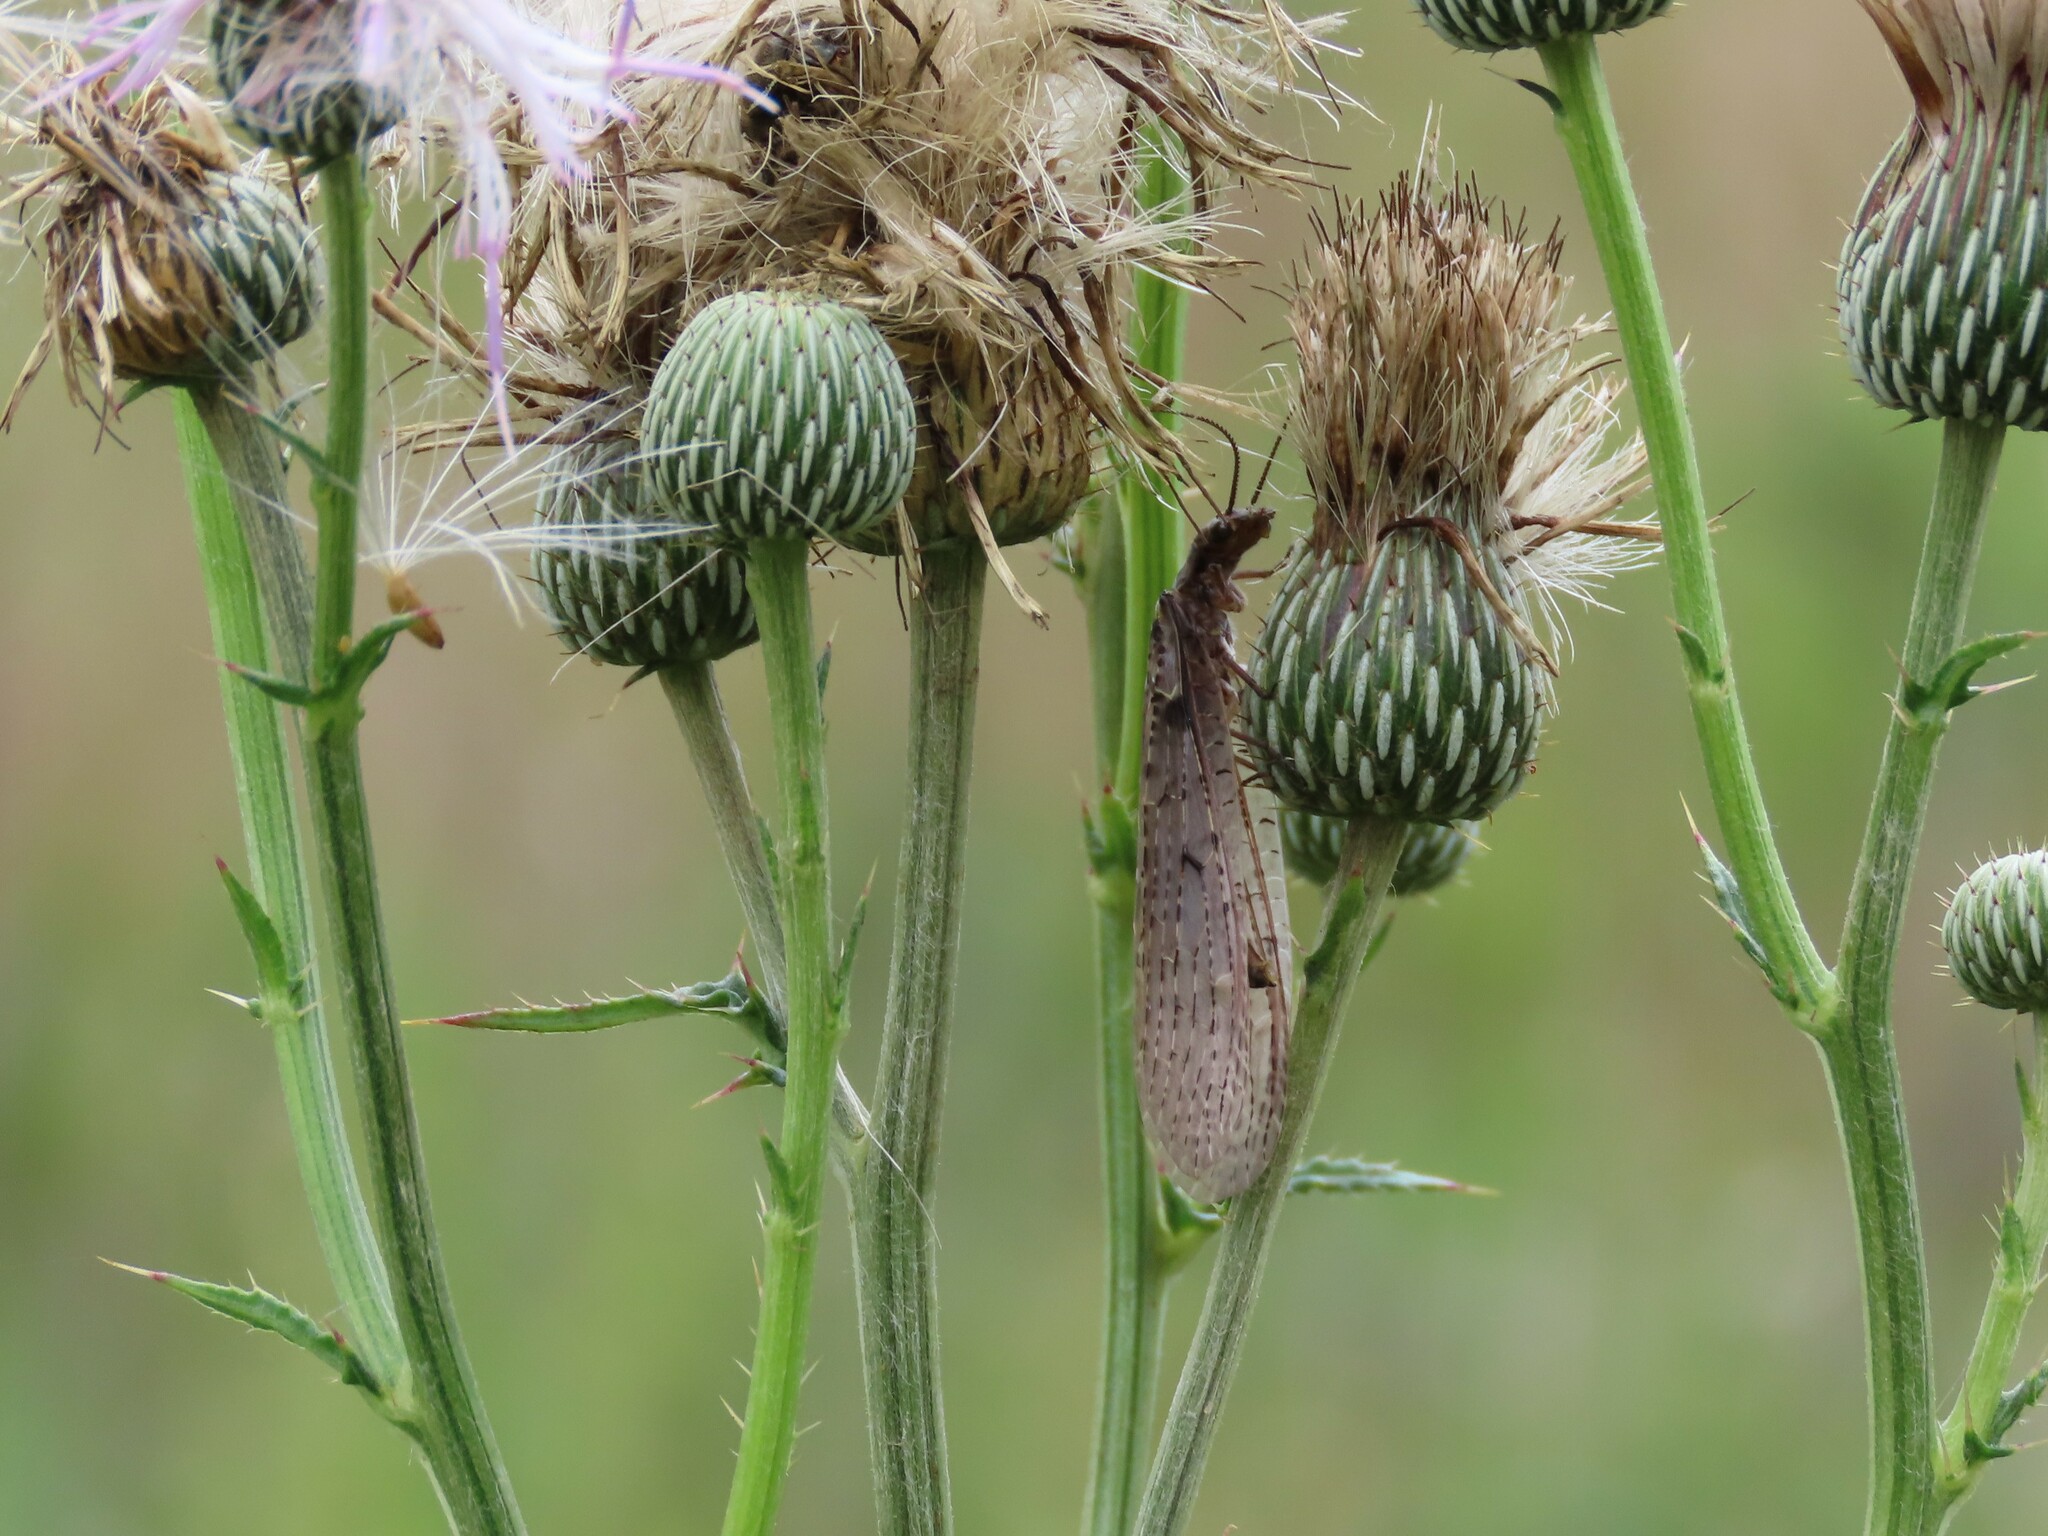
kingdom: Animalia
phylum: Arthropoda
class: Insecta
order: Megaloptera
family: Corydalidae
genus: Chauliodes
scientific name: Chauliodes rastricornis
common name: Spring fishfly
